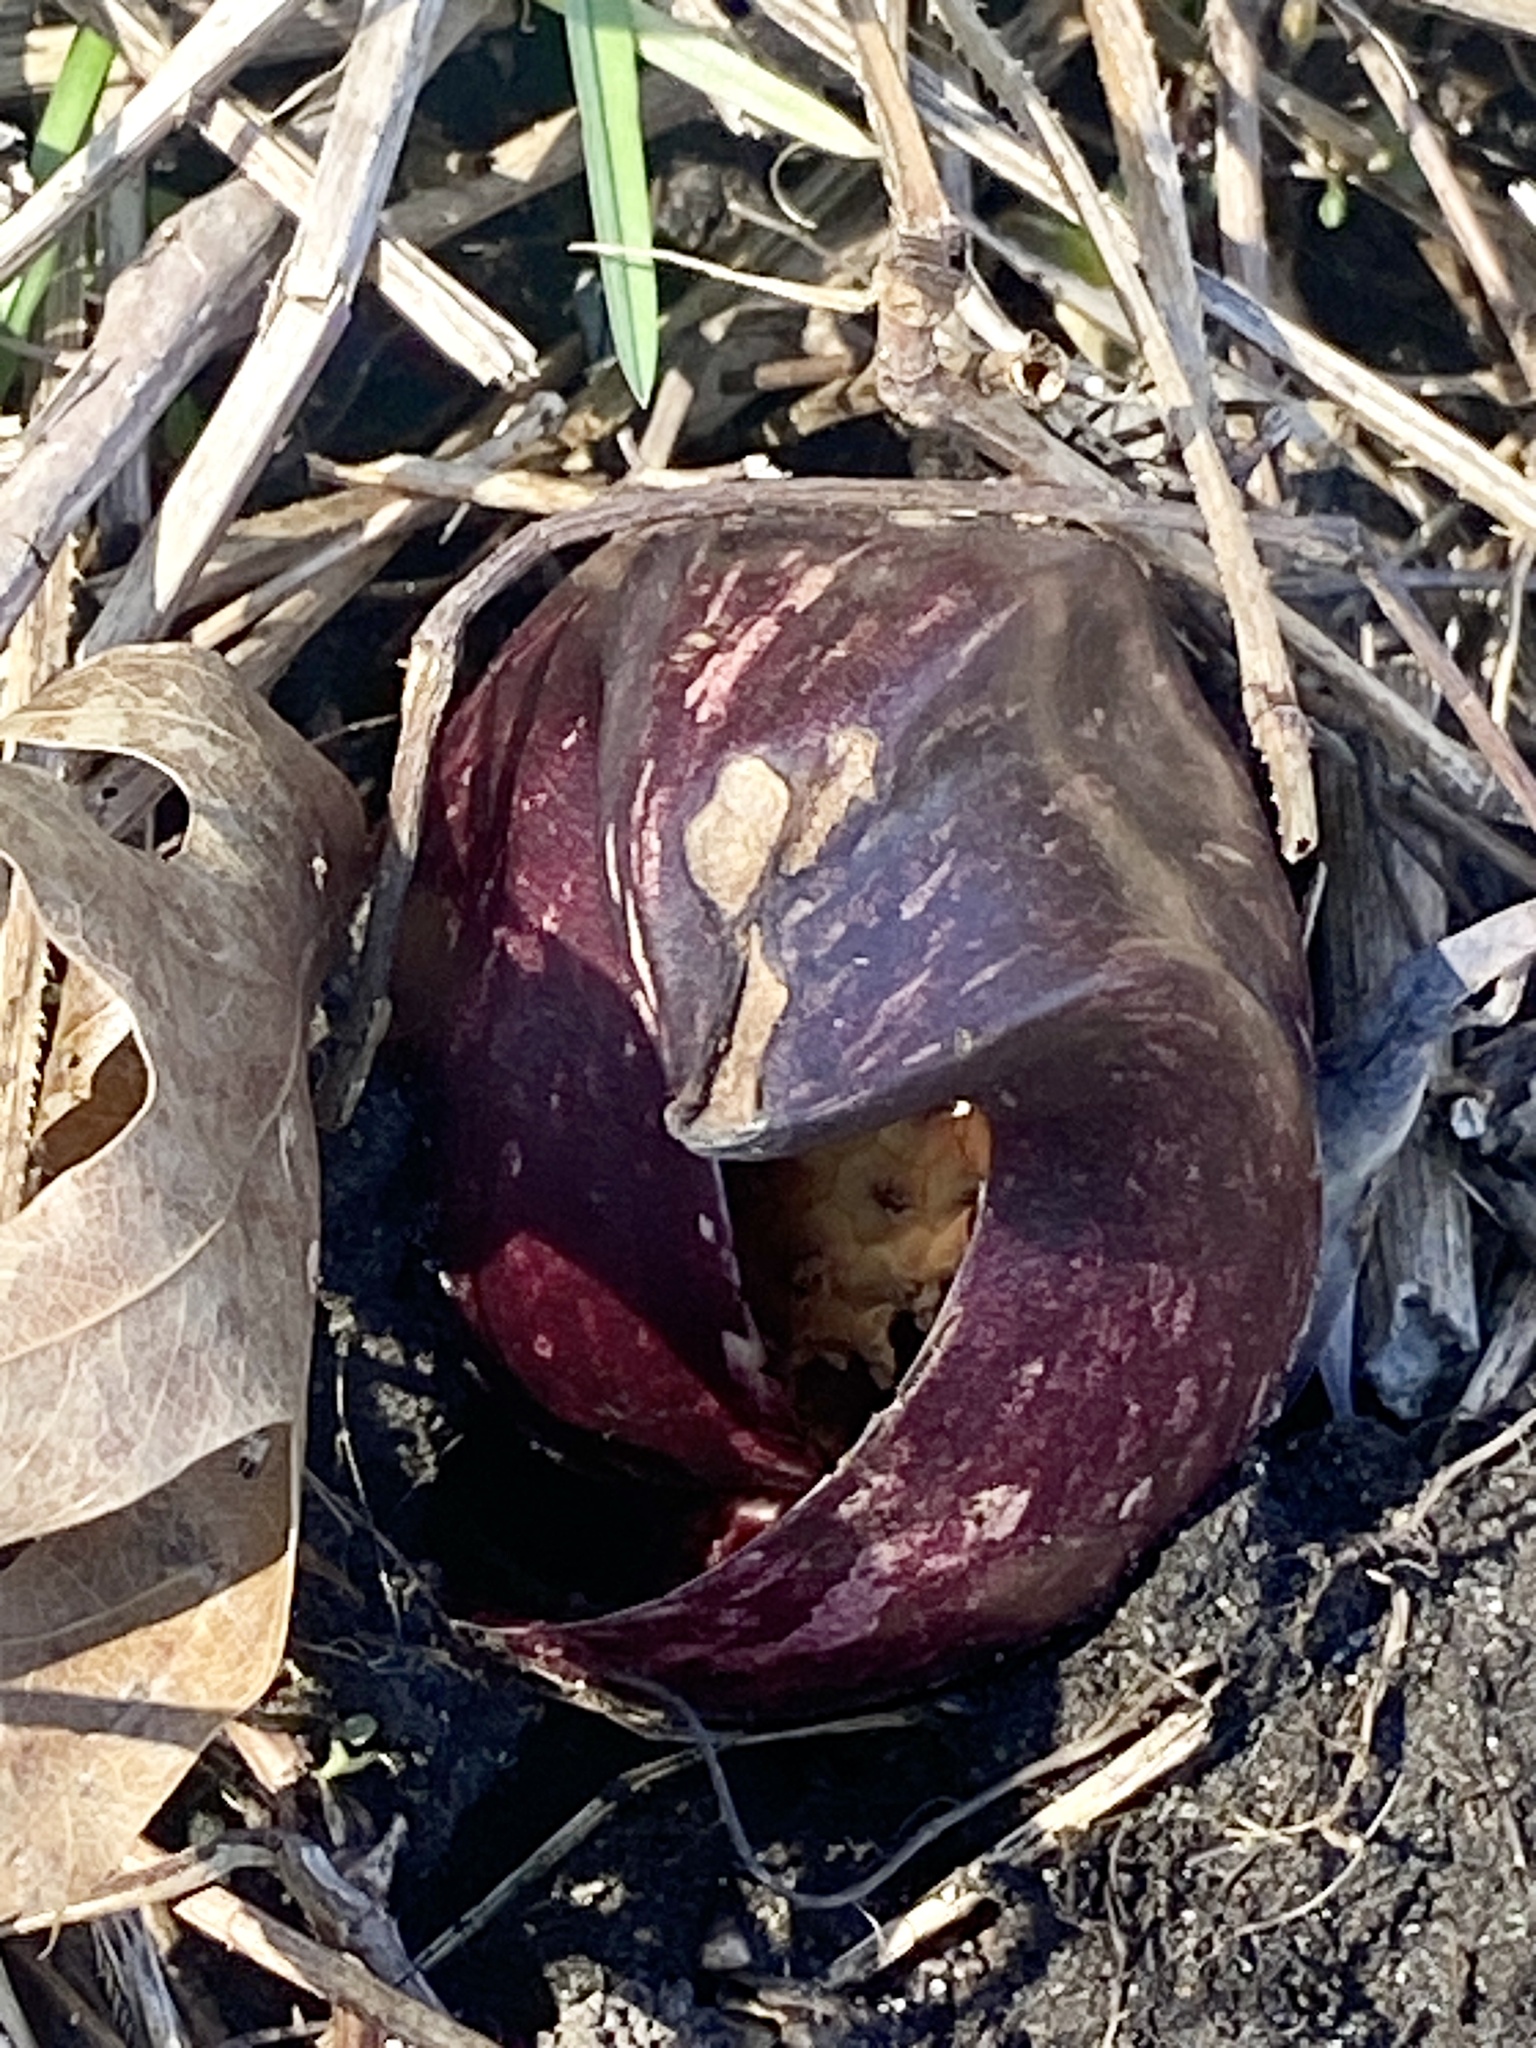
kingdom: Plantae
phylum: Tracheophyta
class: Liliopsida
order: Alismatales
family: Araceae
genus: Symplocarpus
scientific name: Symplocarpus foetidus
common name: Eastern skunk cabbage
